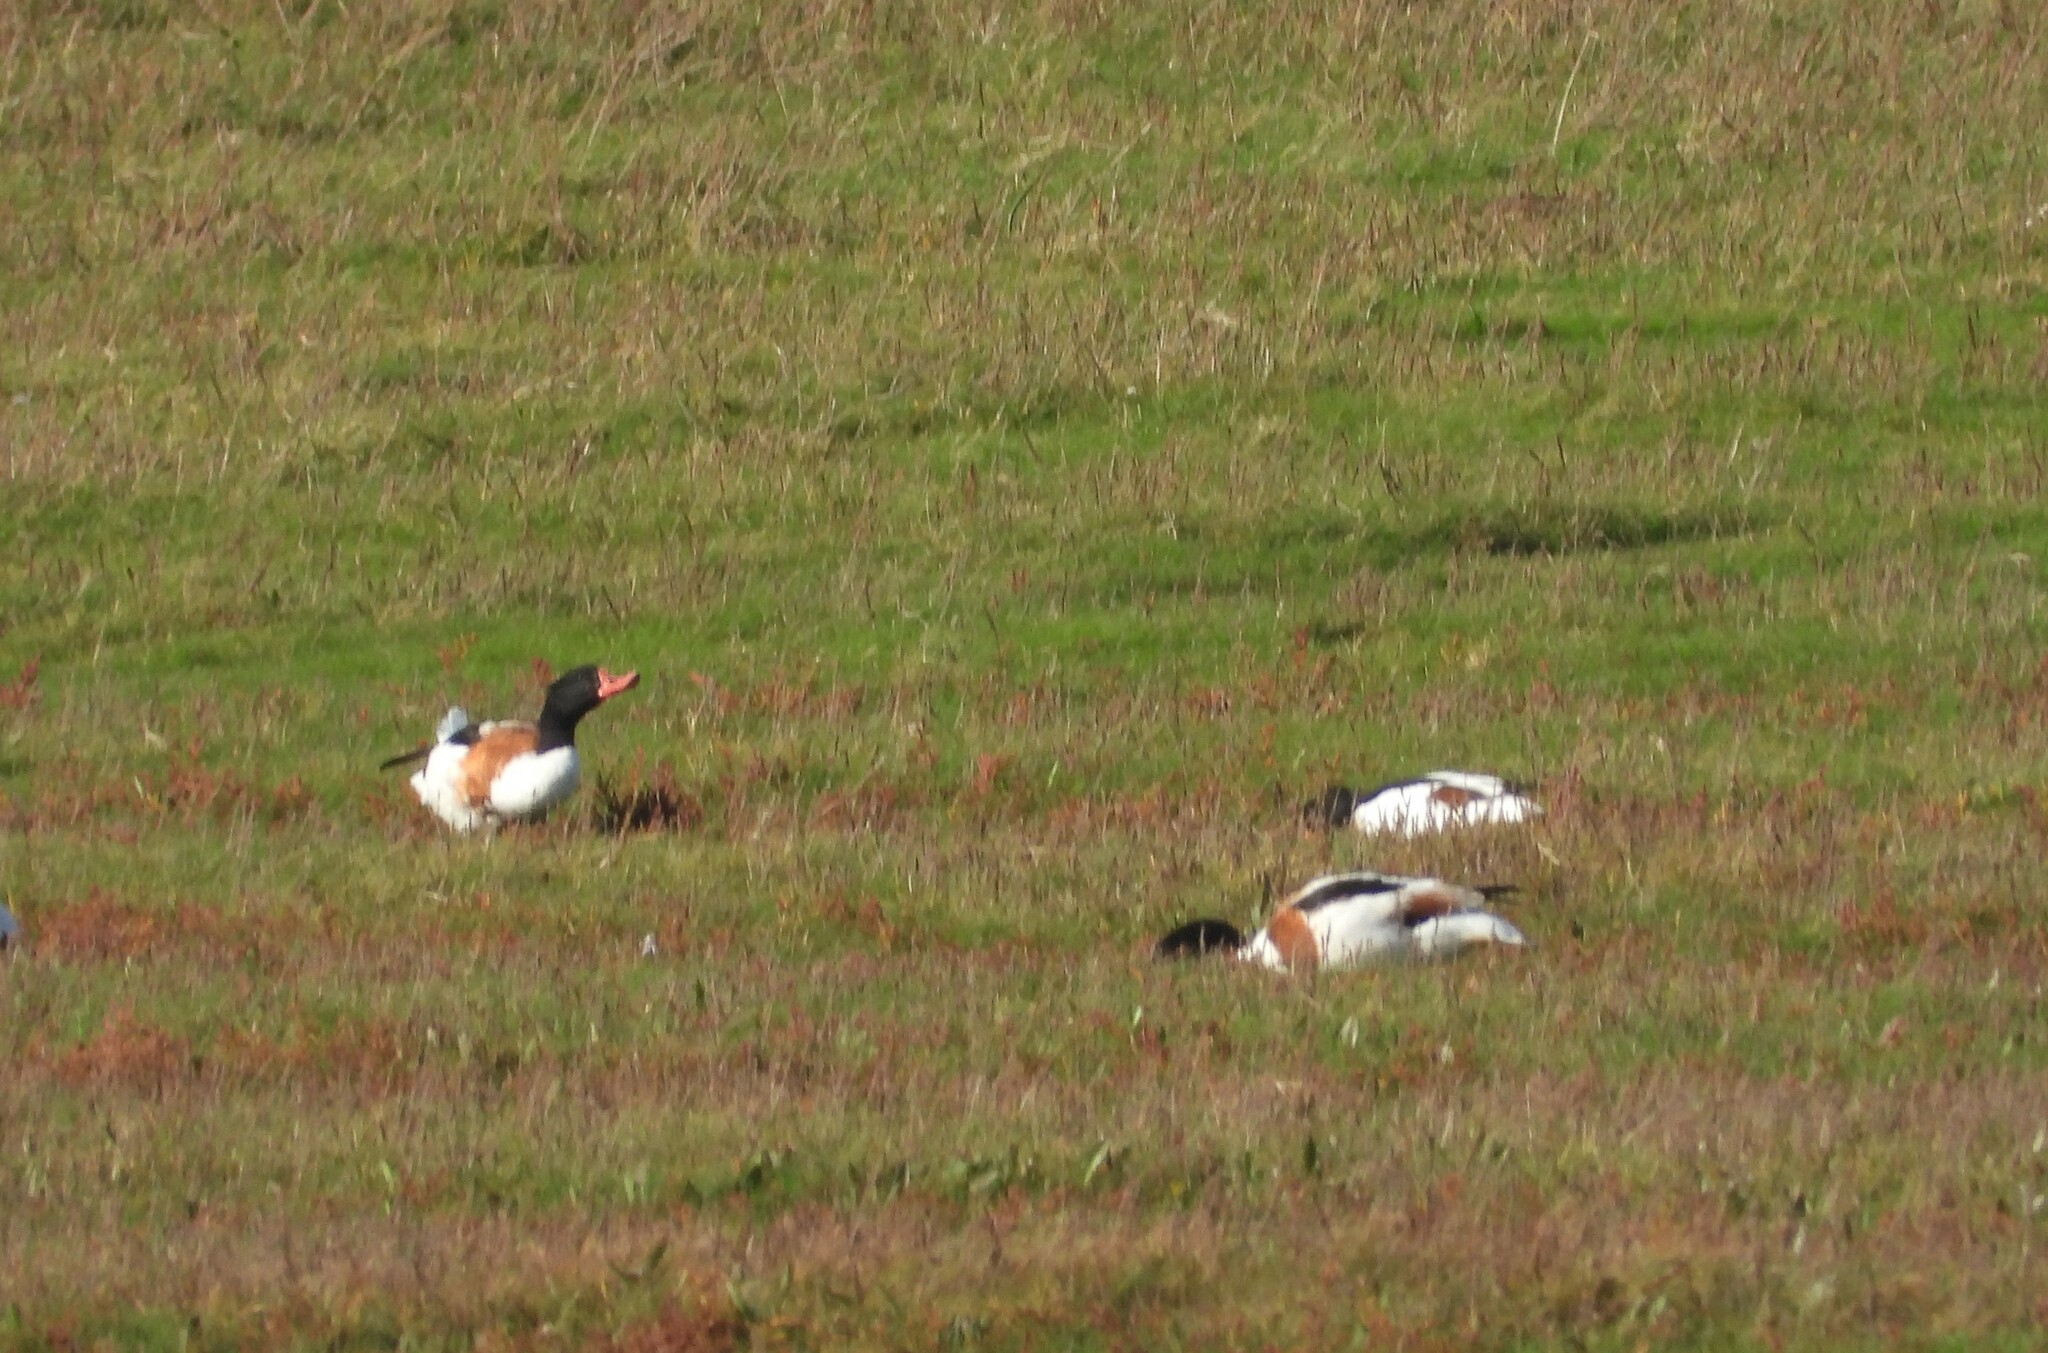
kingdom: Animalia
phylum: Chordata
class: Aves
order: Anseriformes
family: Anatidae
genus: Tadorna
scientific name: Tadorna tadorna
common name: Common shelduck
